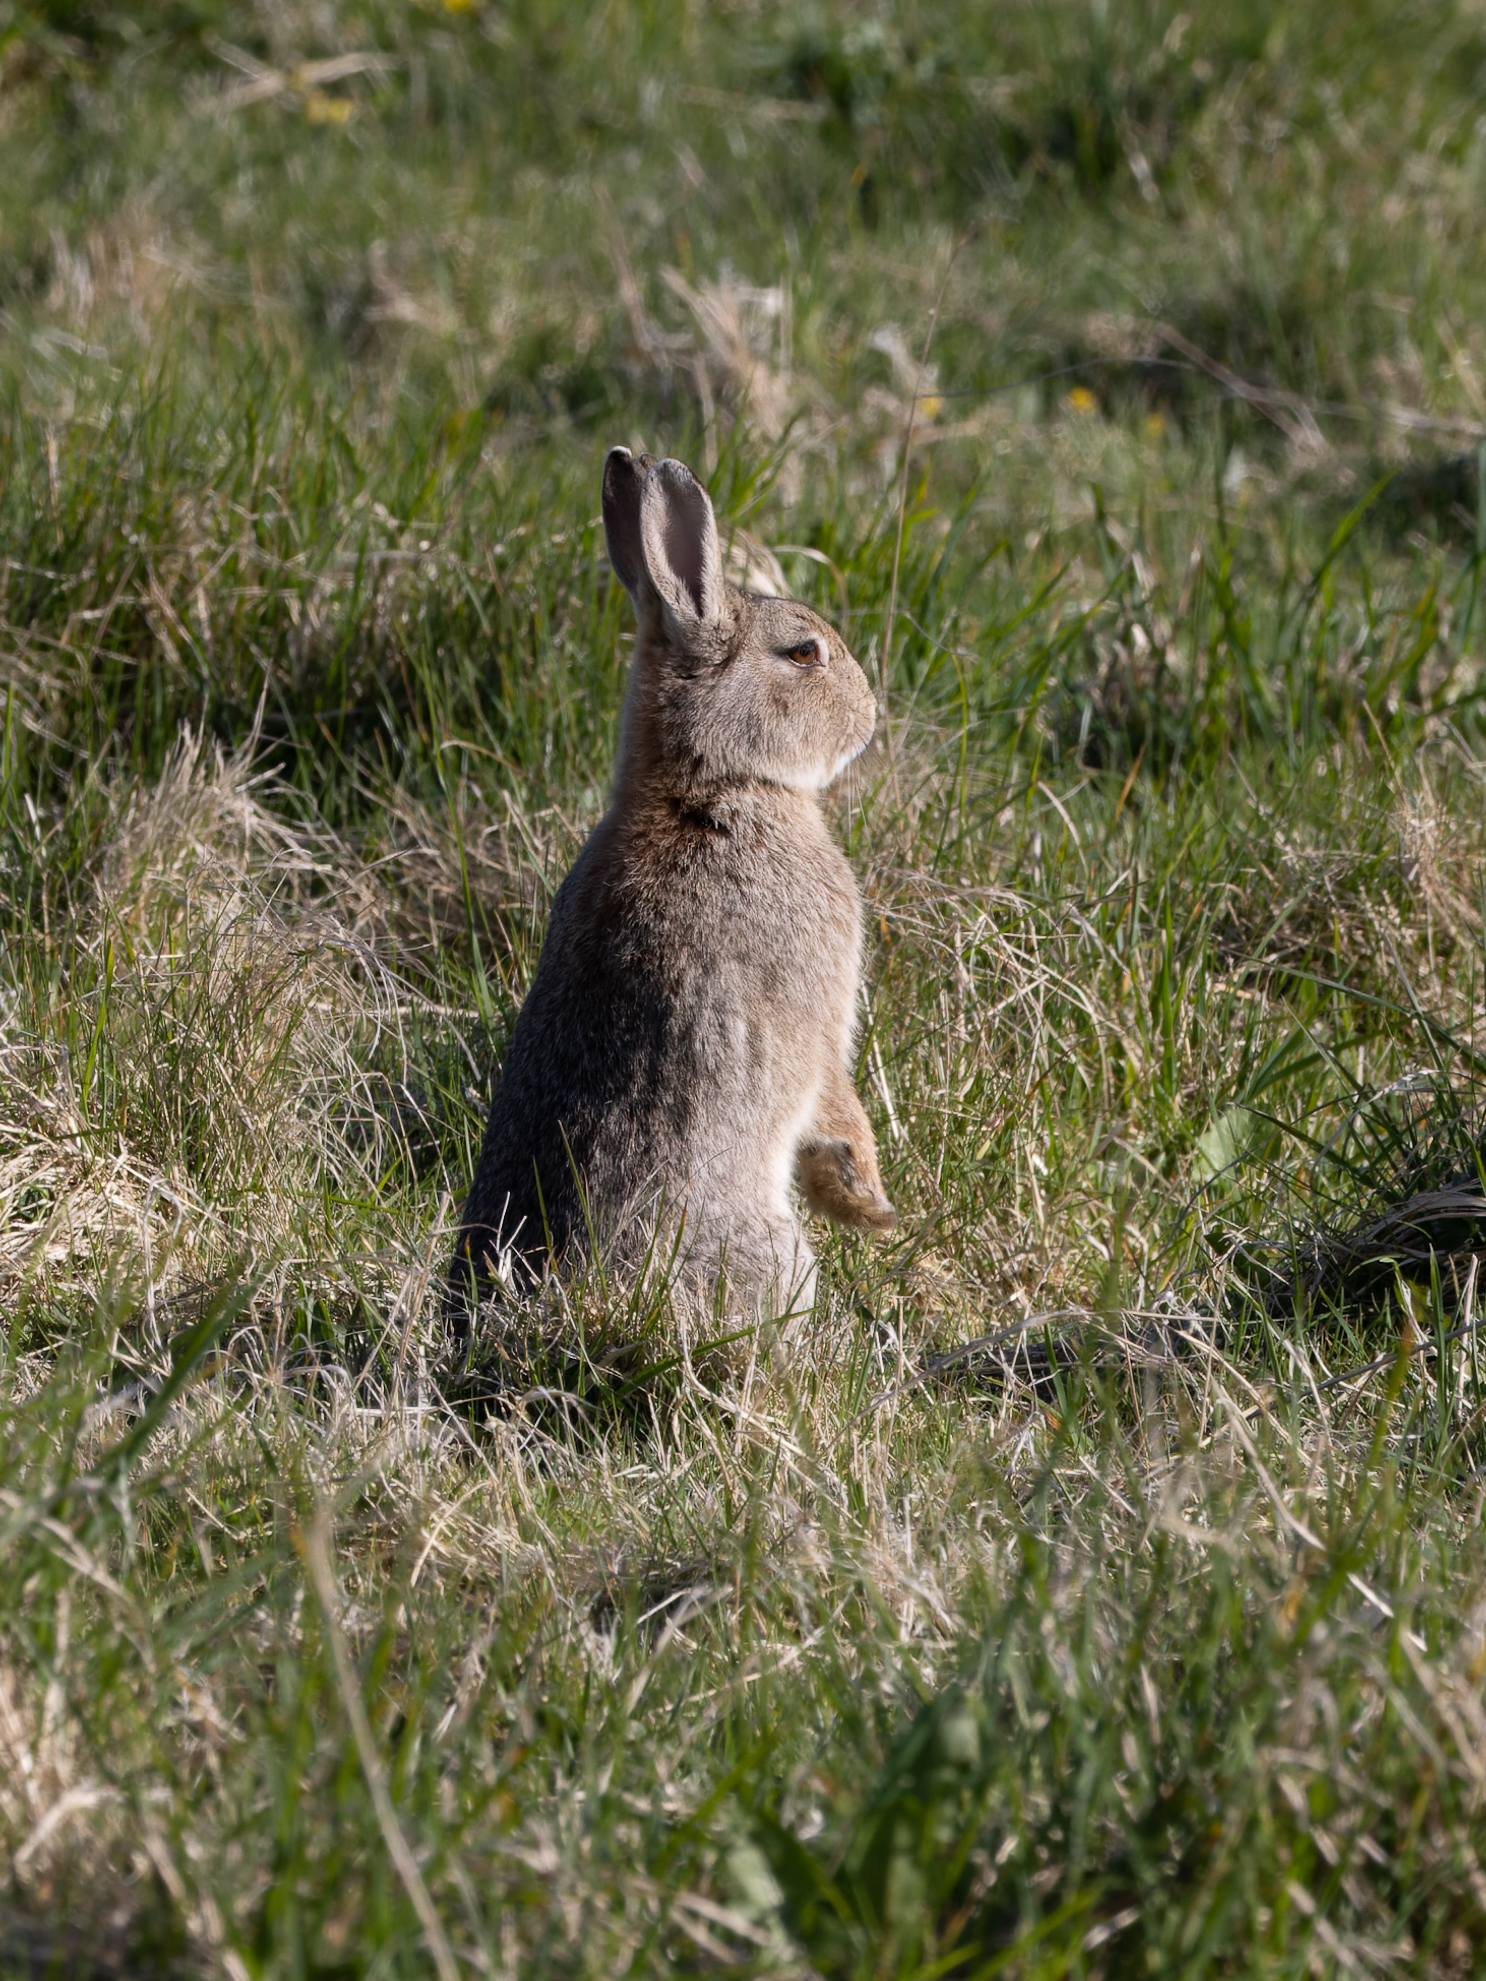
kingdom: Animalia
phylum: Chordata
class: Mammalia
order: Lagomorpha
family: Leporidae
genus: Oryctolagus
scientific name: Oryctolagus cuniculus
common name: European rabbit
